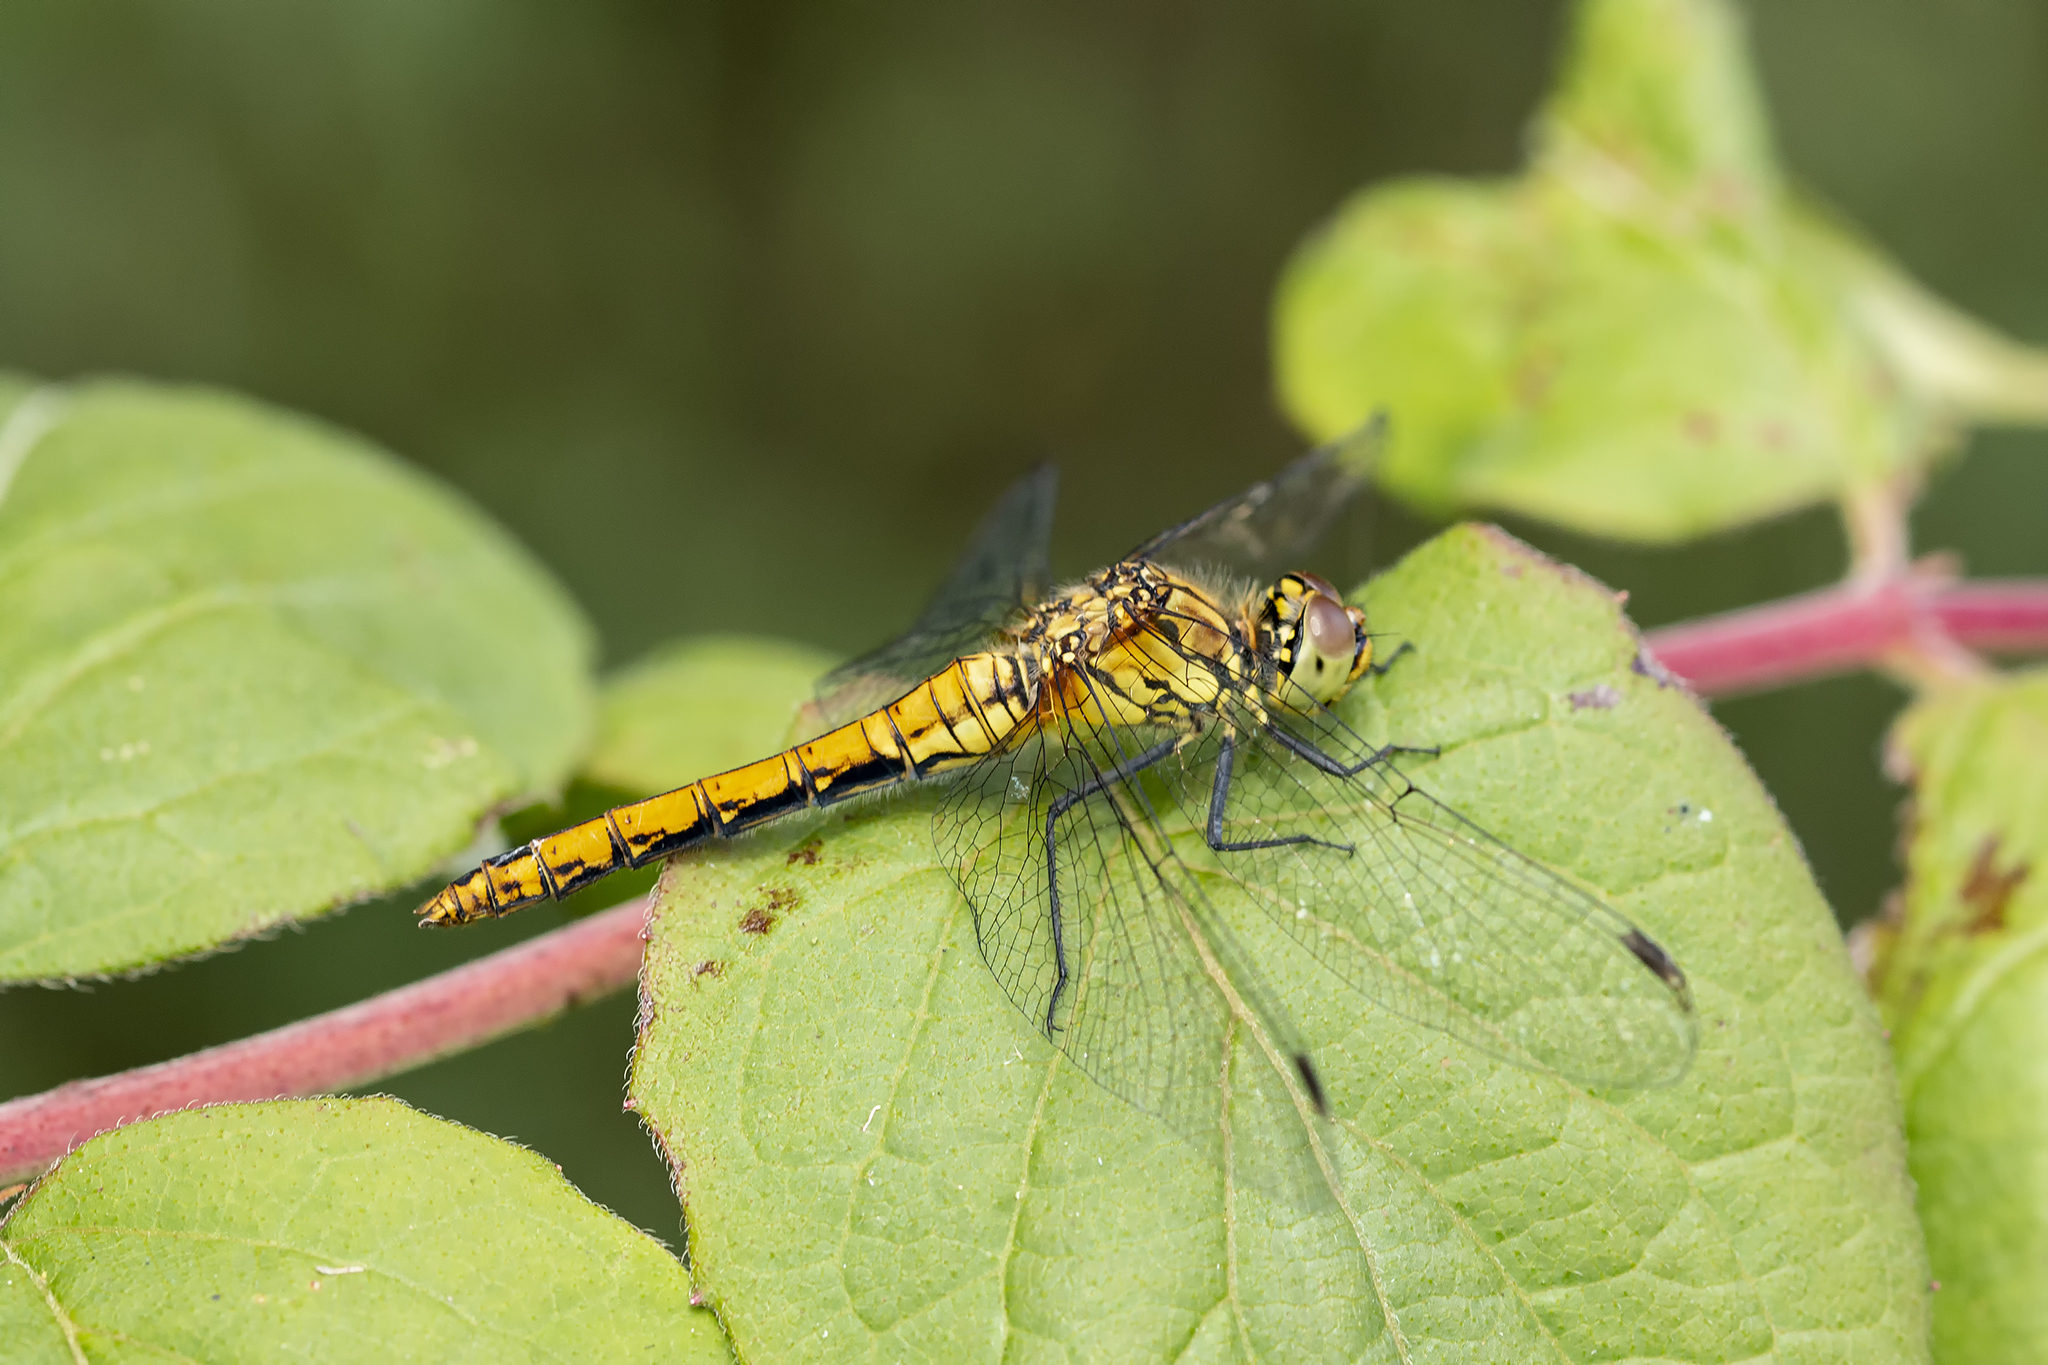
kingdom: Animalia
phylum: Arthropoda
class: Insecta
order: Odonata
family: Libellulidae
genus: Sympetrum
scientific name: Sympetrum sanguineum
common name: Ruddy darter
